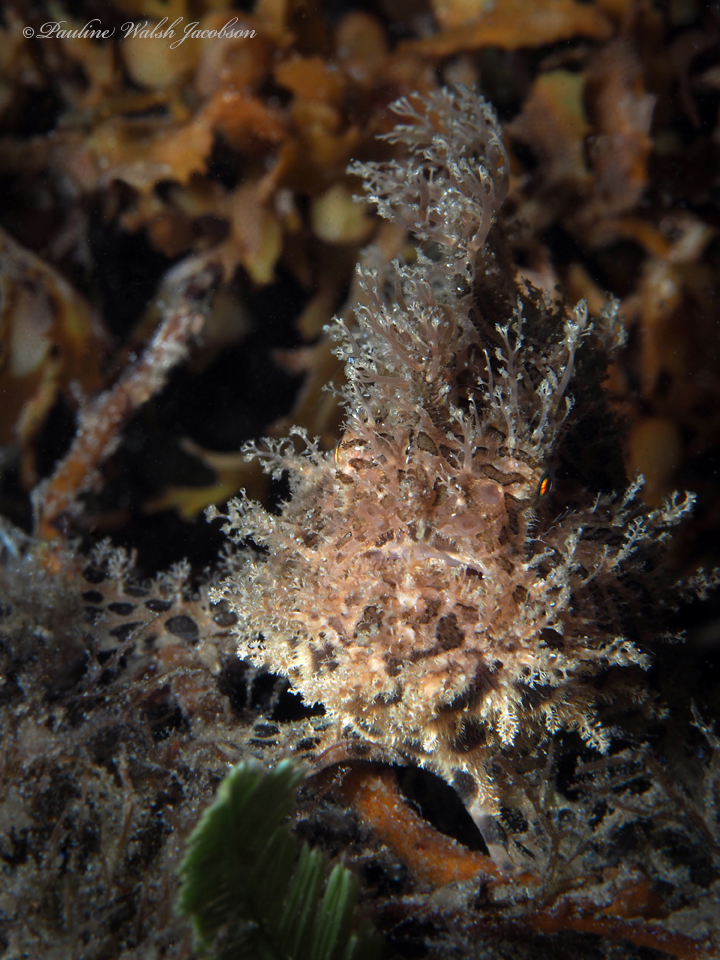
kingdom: Animalia
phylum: Chordata
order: Lophiiformes
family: Antennariidae
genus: Antennarius
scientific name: Antennarius striatus
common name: Striated frogfish
